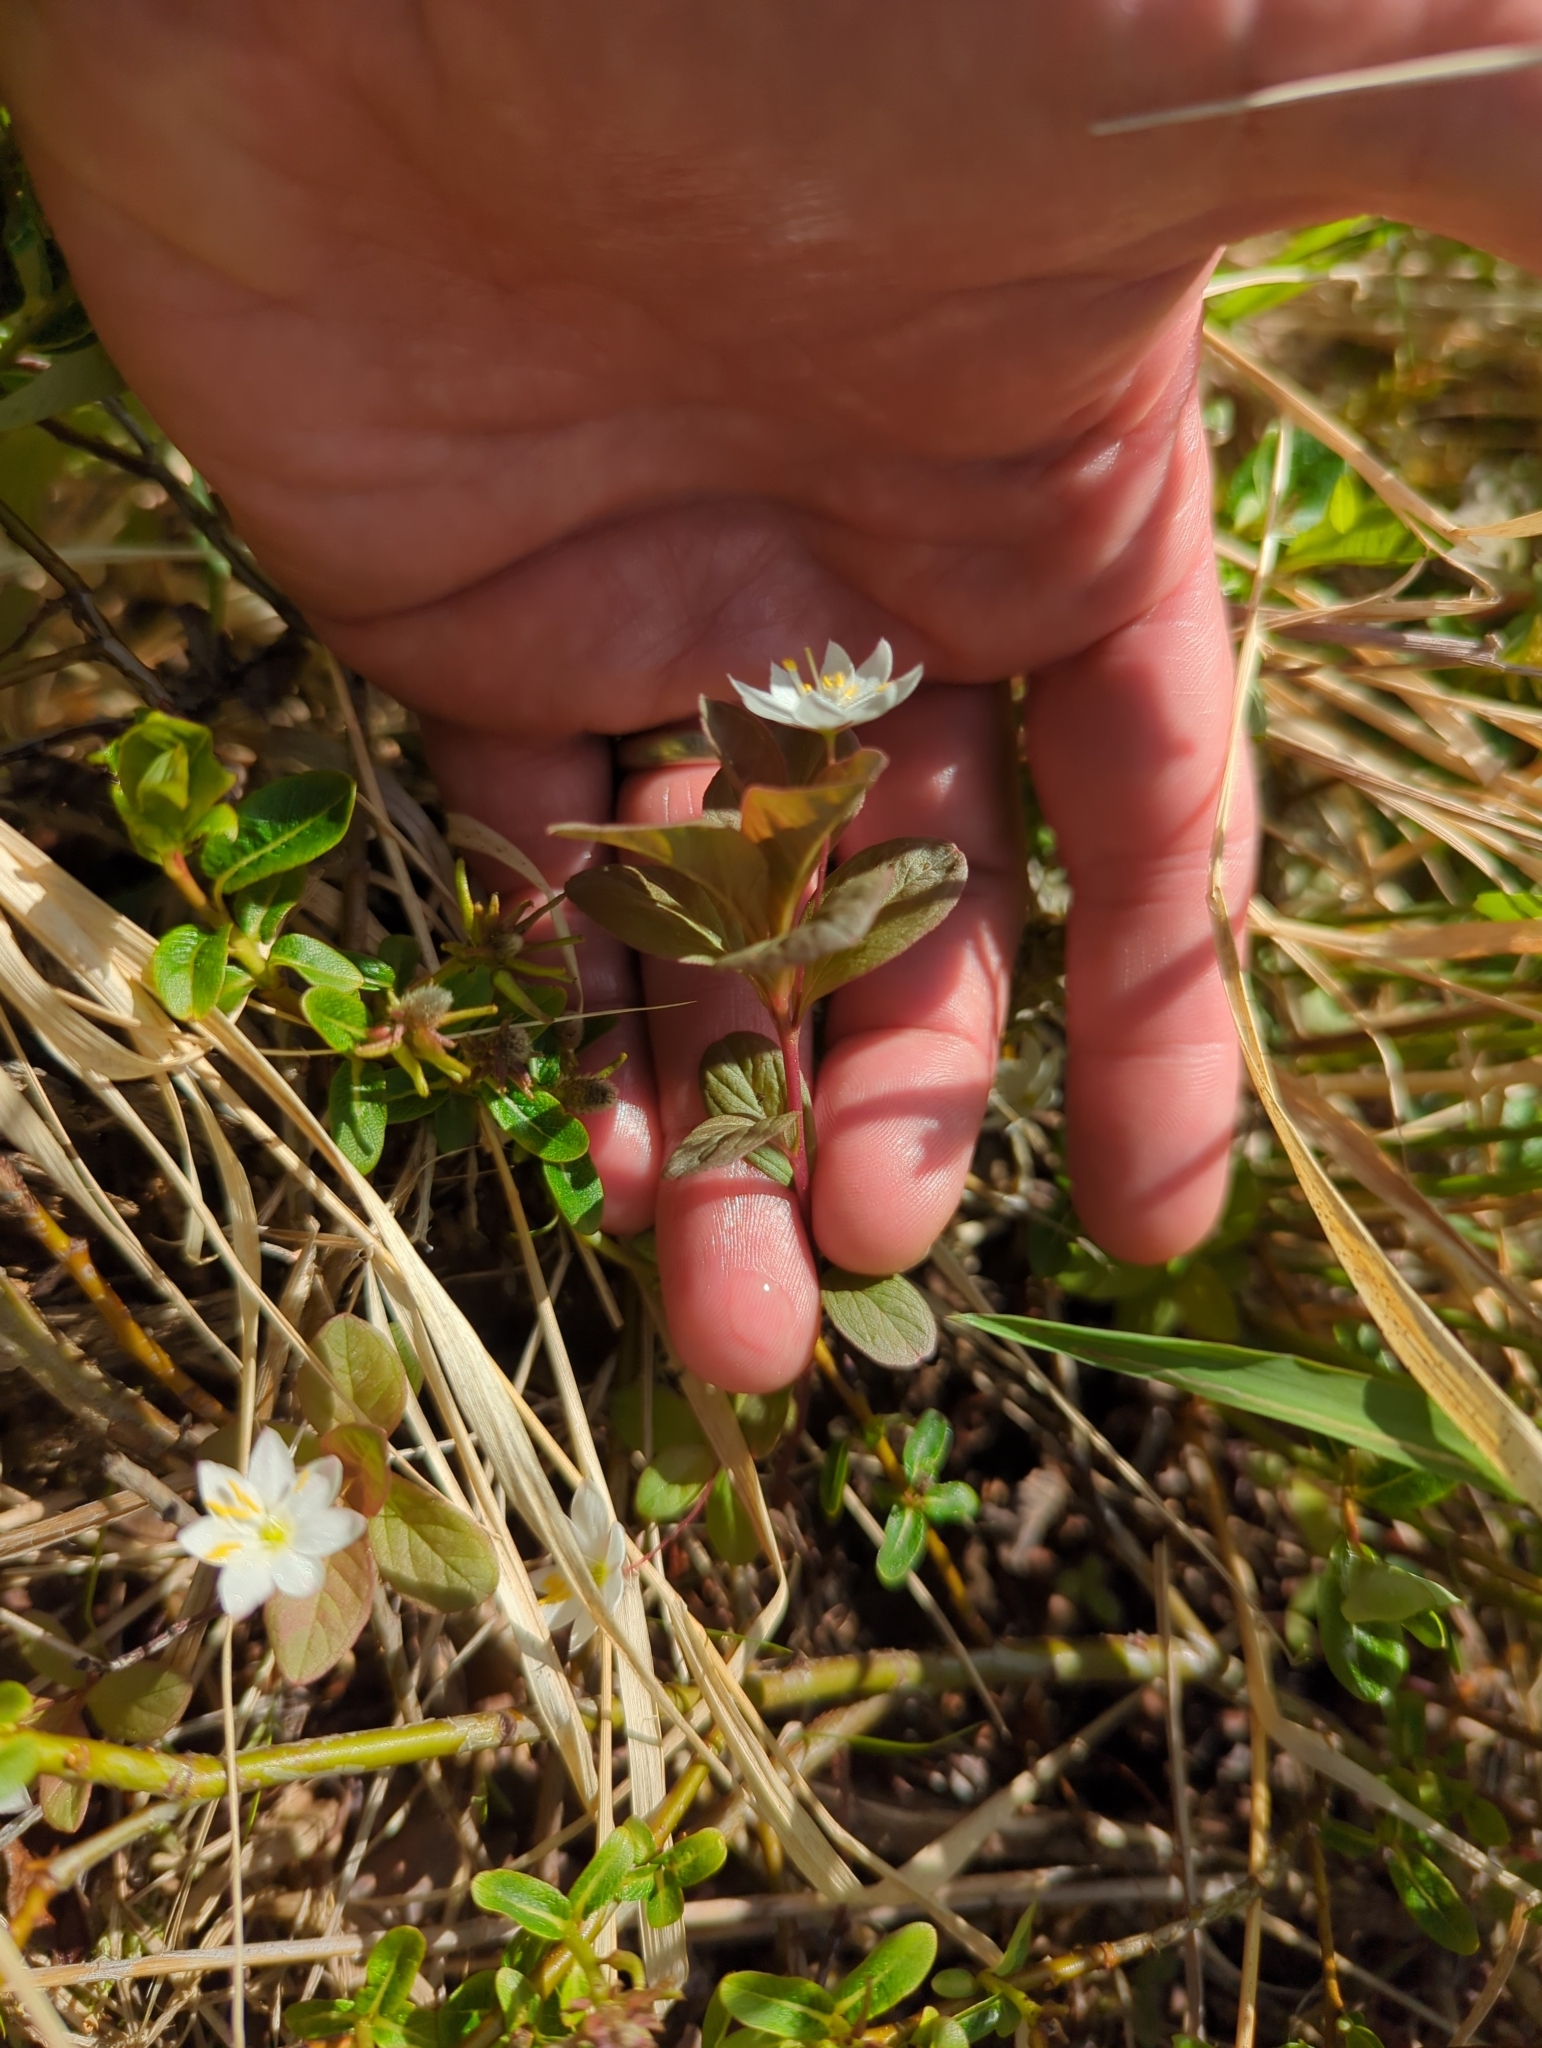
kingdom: Plantae
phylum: Tracheophyta
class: Magnoliopsida
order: Ericales
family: Primulaceae
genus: Lysimachia
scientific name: Lysimachia europaea
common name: Arctic starflower
